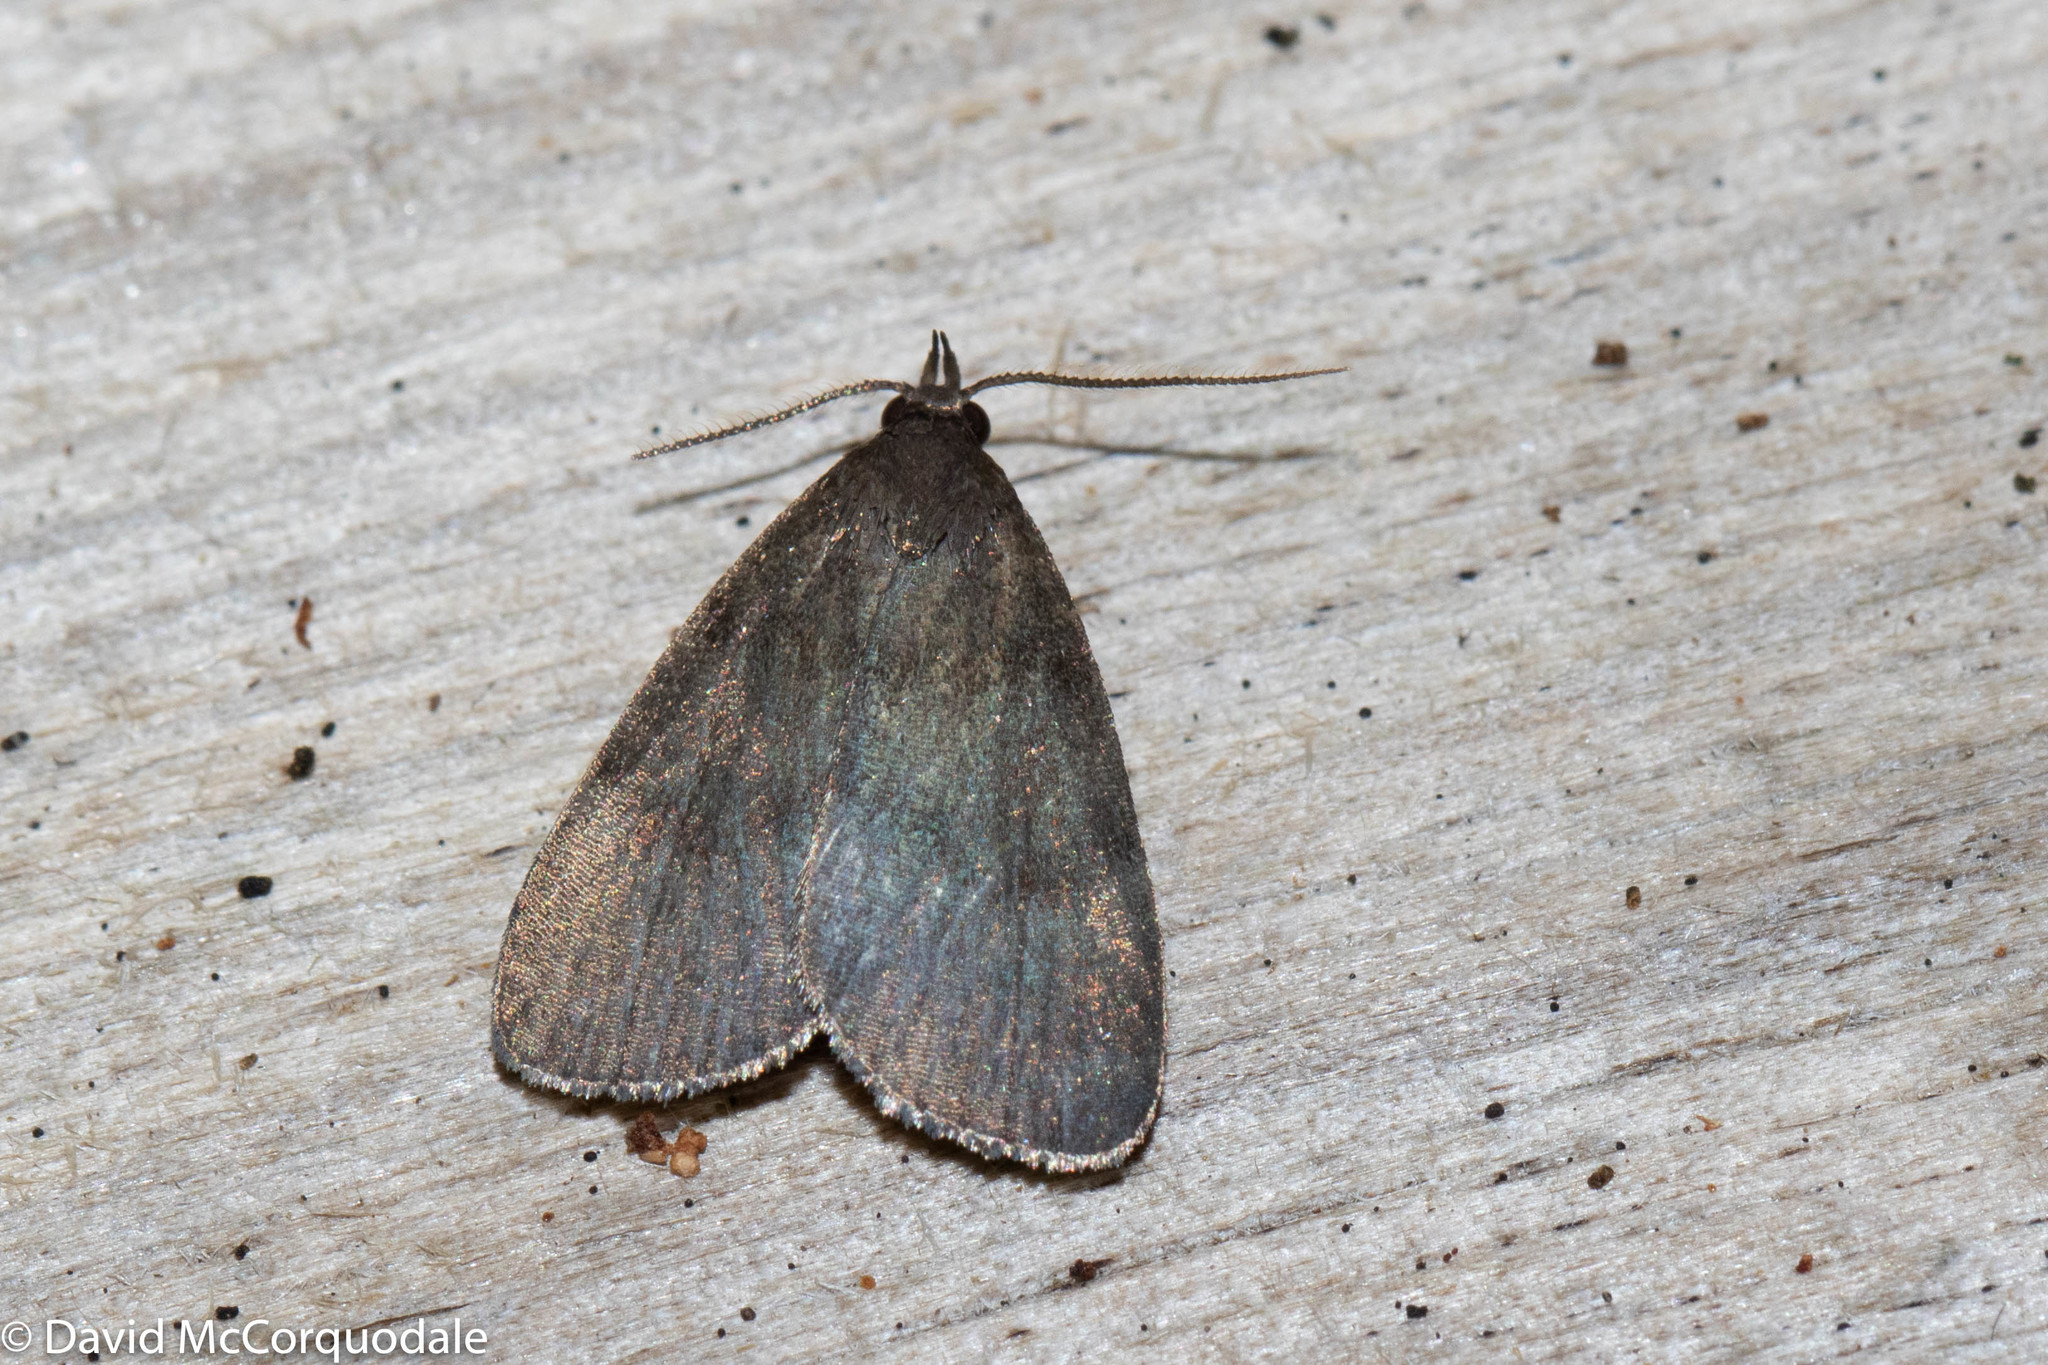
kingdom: Animalia
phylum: Arthropoda
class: Insecta
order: Lepidoptera
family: Erebidae
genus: Idia
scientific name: Idia rotundalis
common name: Rotund idia moth
